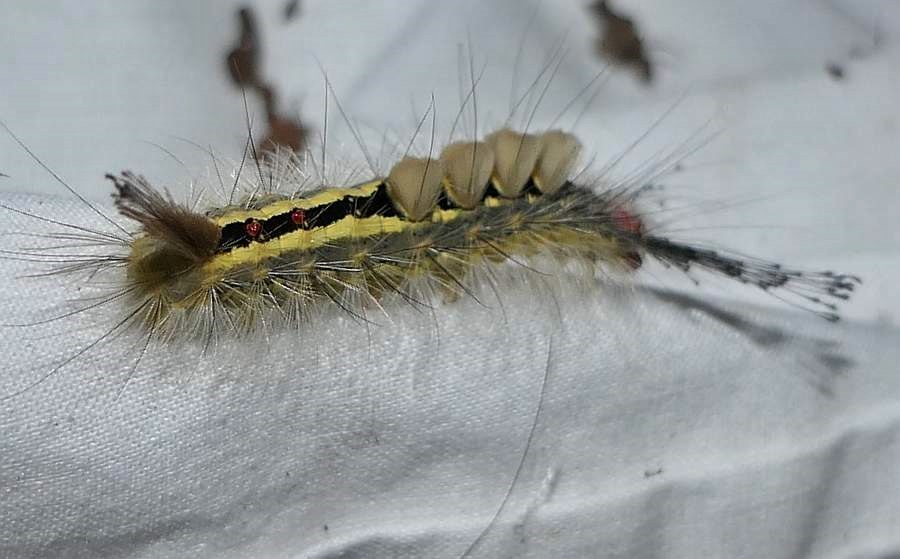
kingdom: Animalia
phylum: Arthropoda
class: Insecta
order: Lepidoptera
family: Erebidae
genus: Orgyia
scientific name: Orgyia leucostigma
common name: White-marked tussock moth
